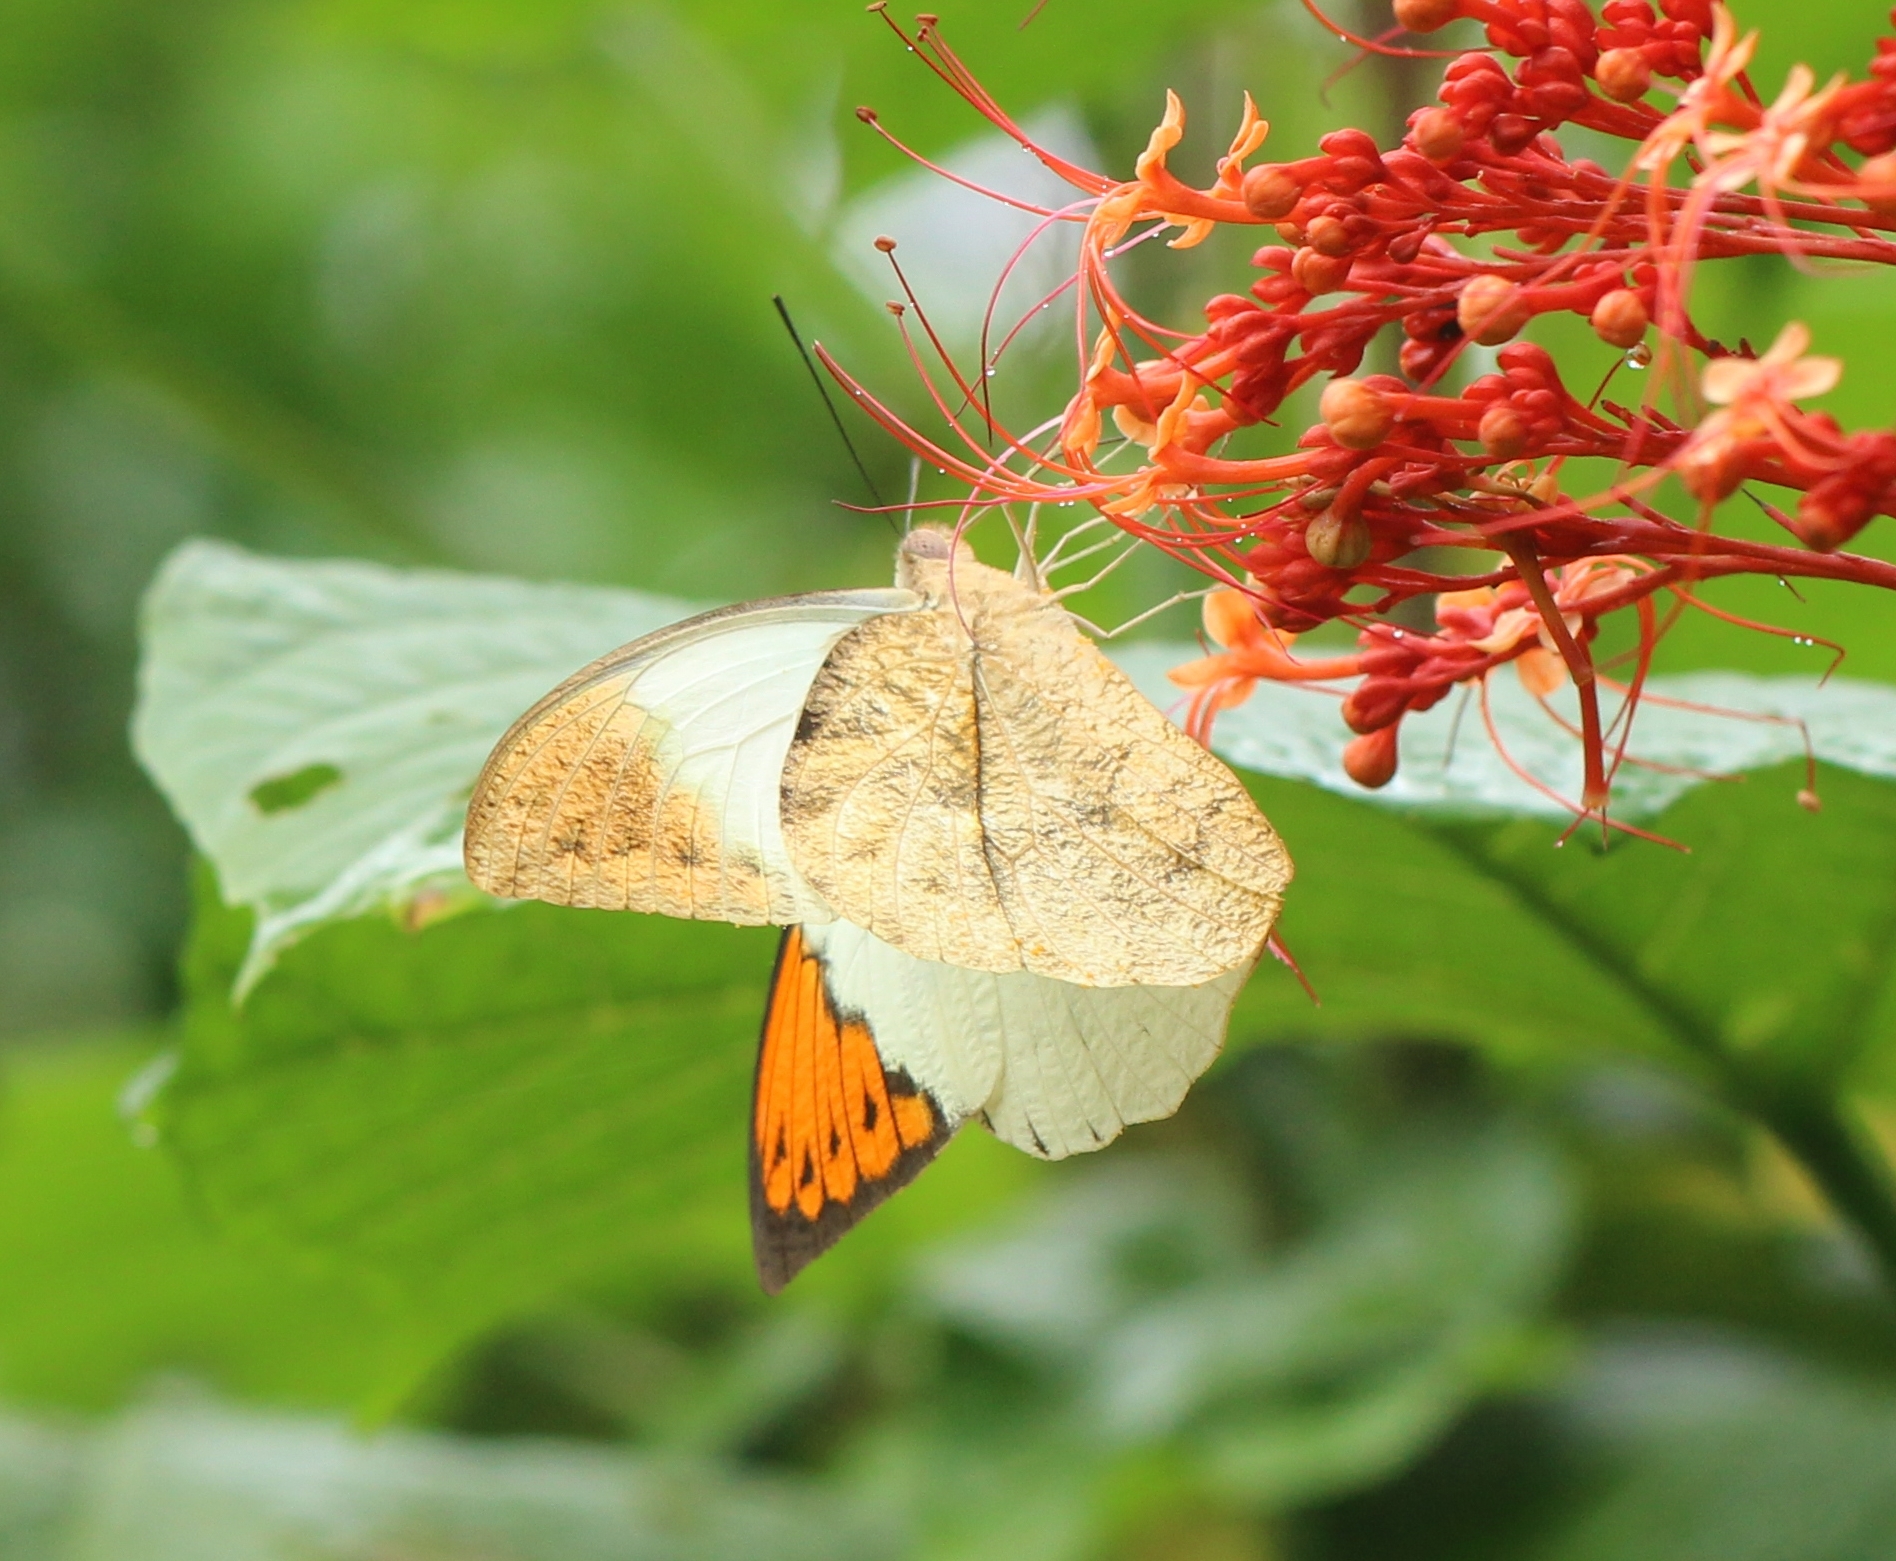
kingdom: Animalia
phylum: Arthropoda
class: Insecta
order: Lepidoptera
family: Pieridae
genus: Hebomoia
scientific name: Hebomoia glaucippe
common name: Great orange tip
